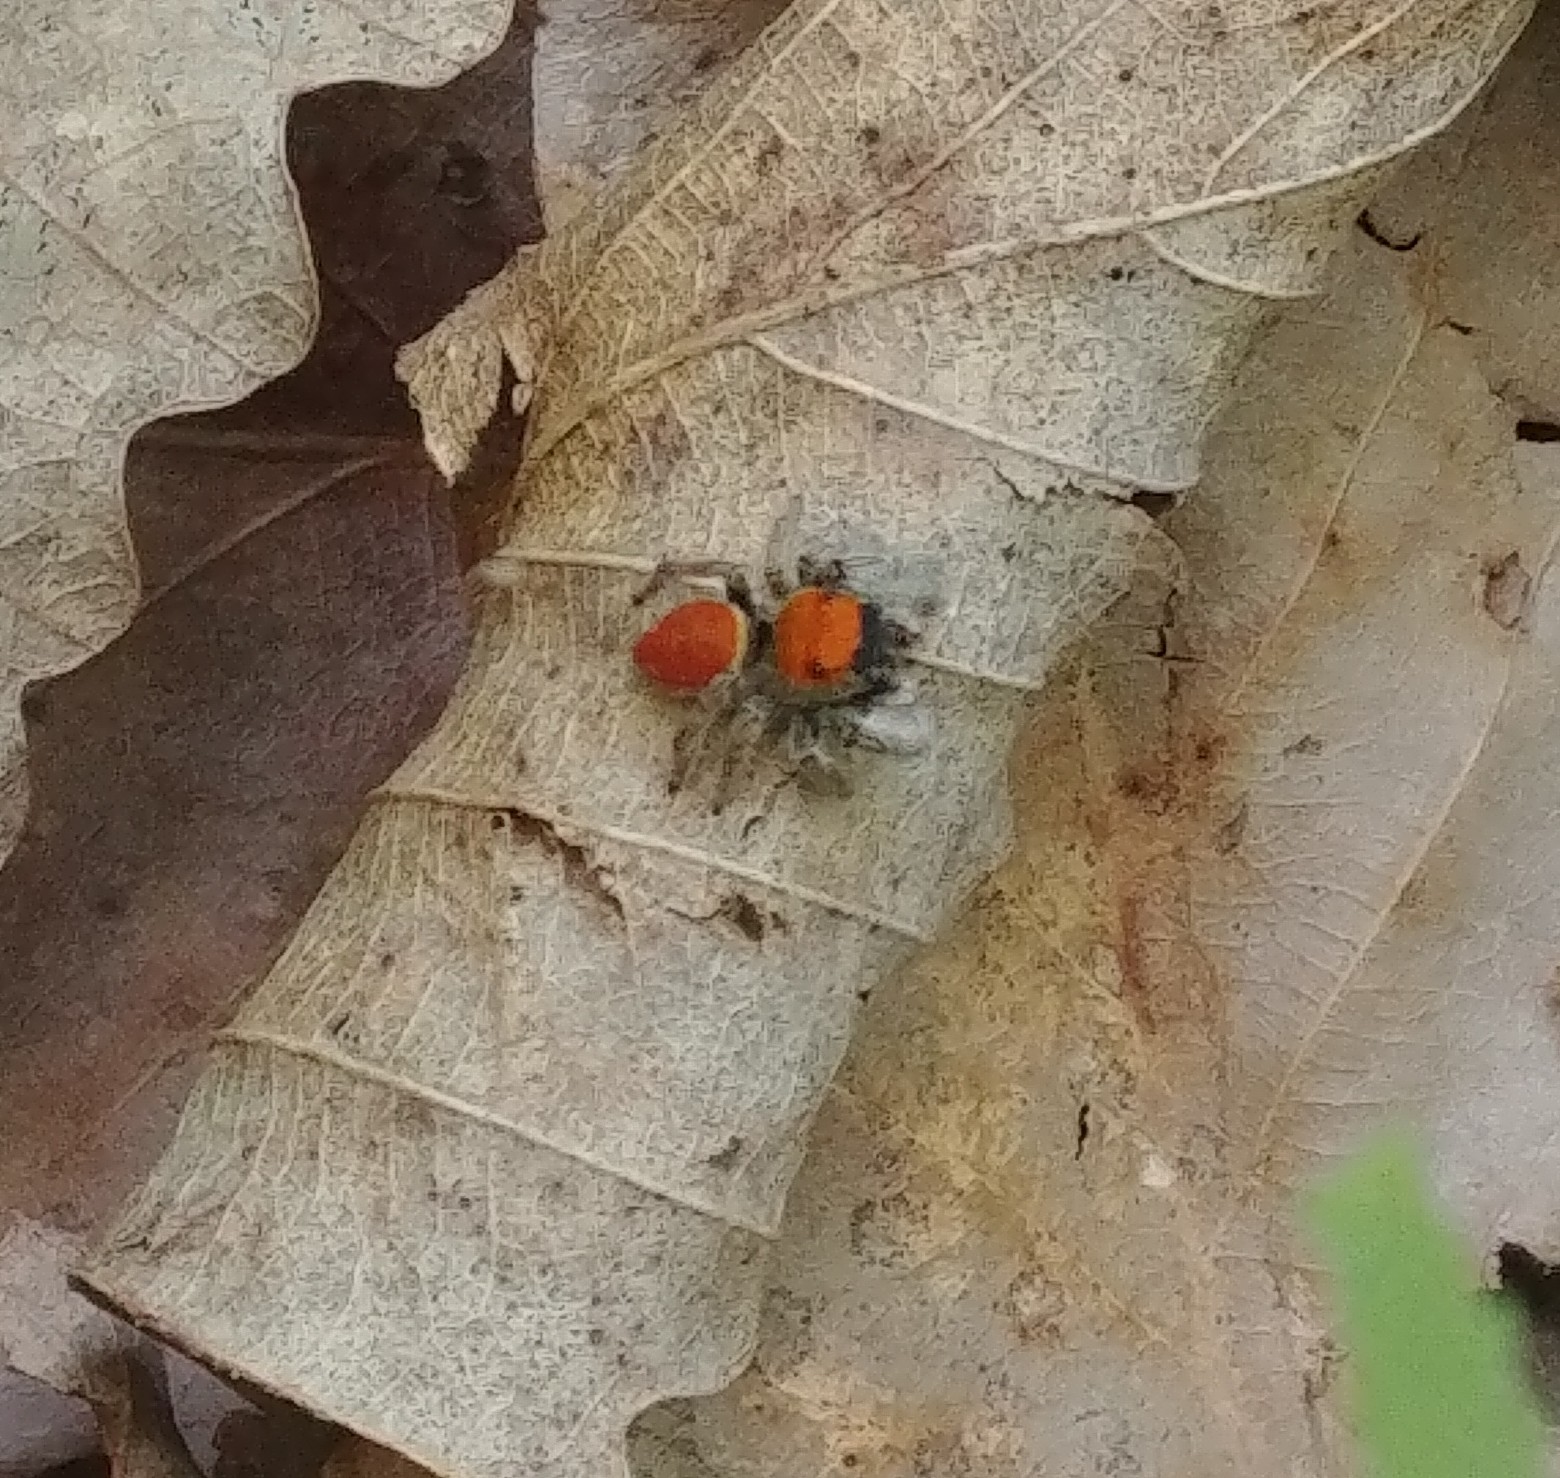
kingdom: Animalia
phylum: Arthropoda
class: Arachnida
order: Araneae
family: Salticidae
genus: Phidippus
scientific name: Phidippus whitmani
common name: Whitman's jumping spider
